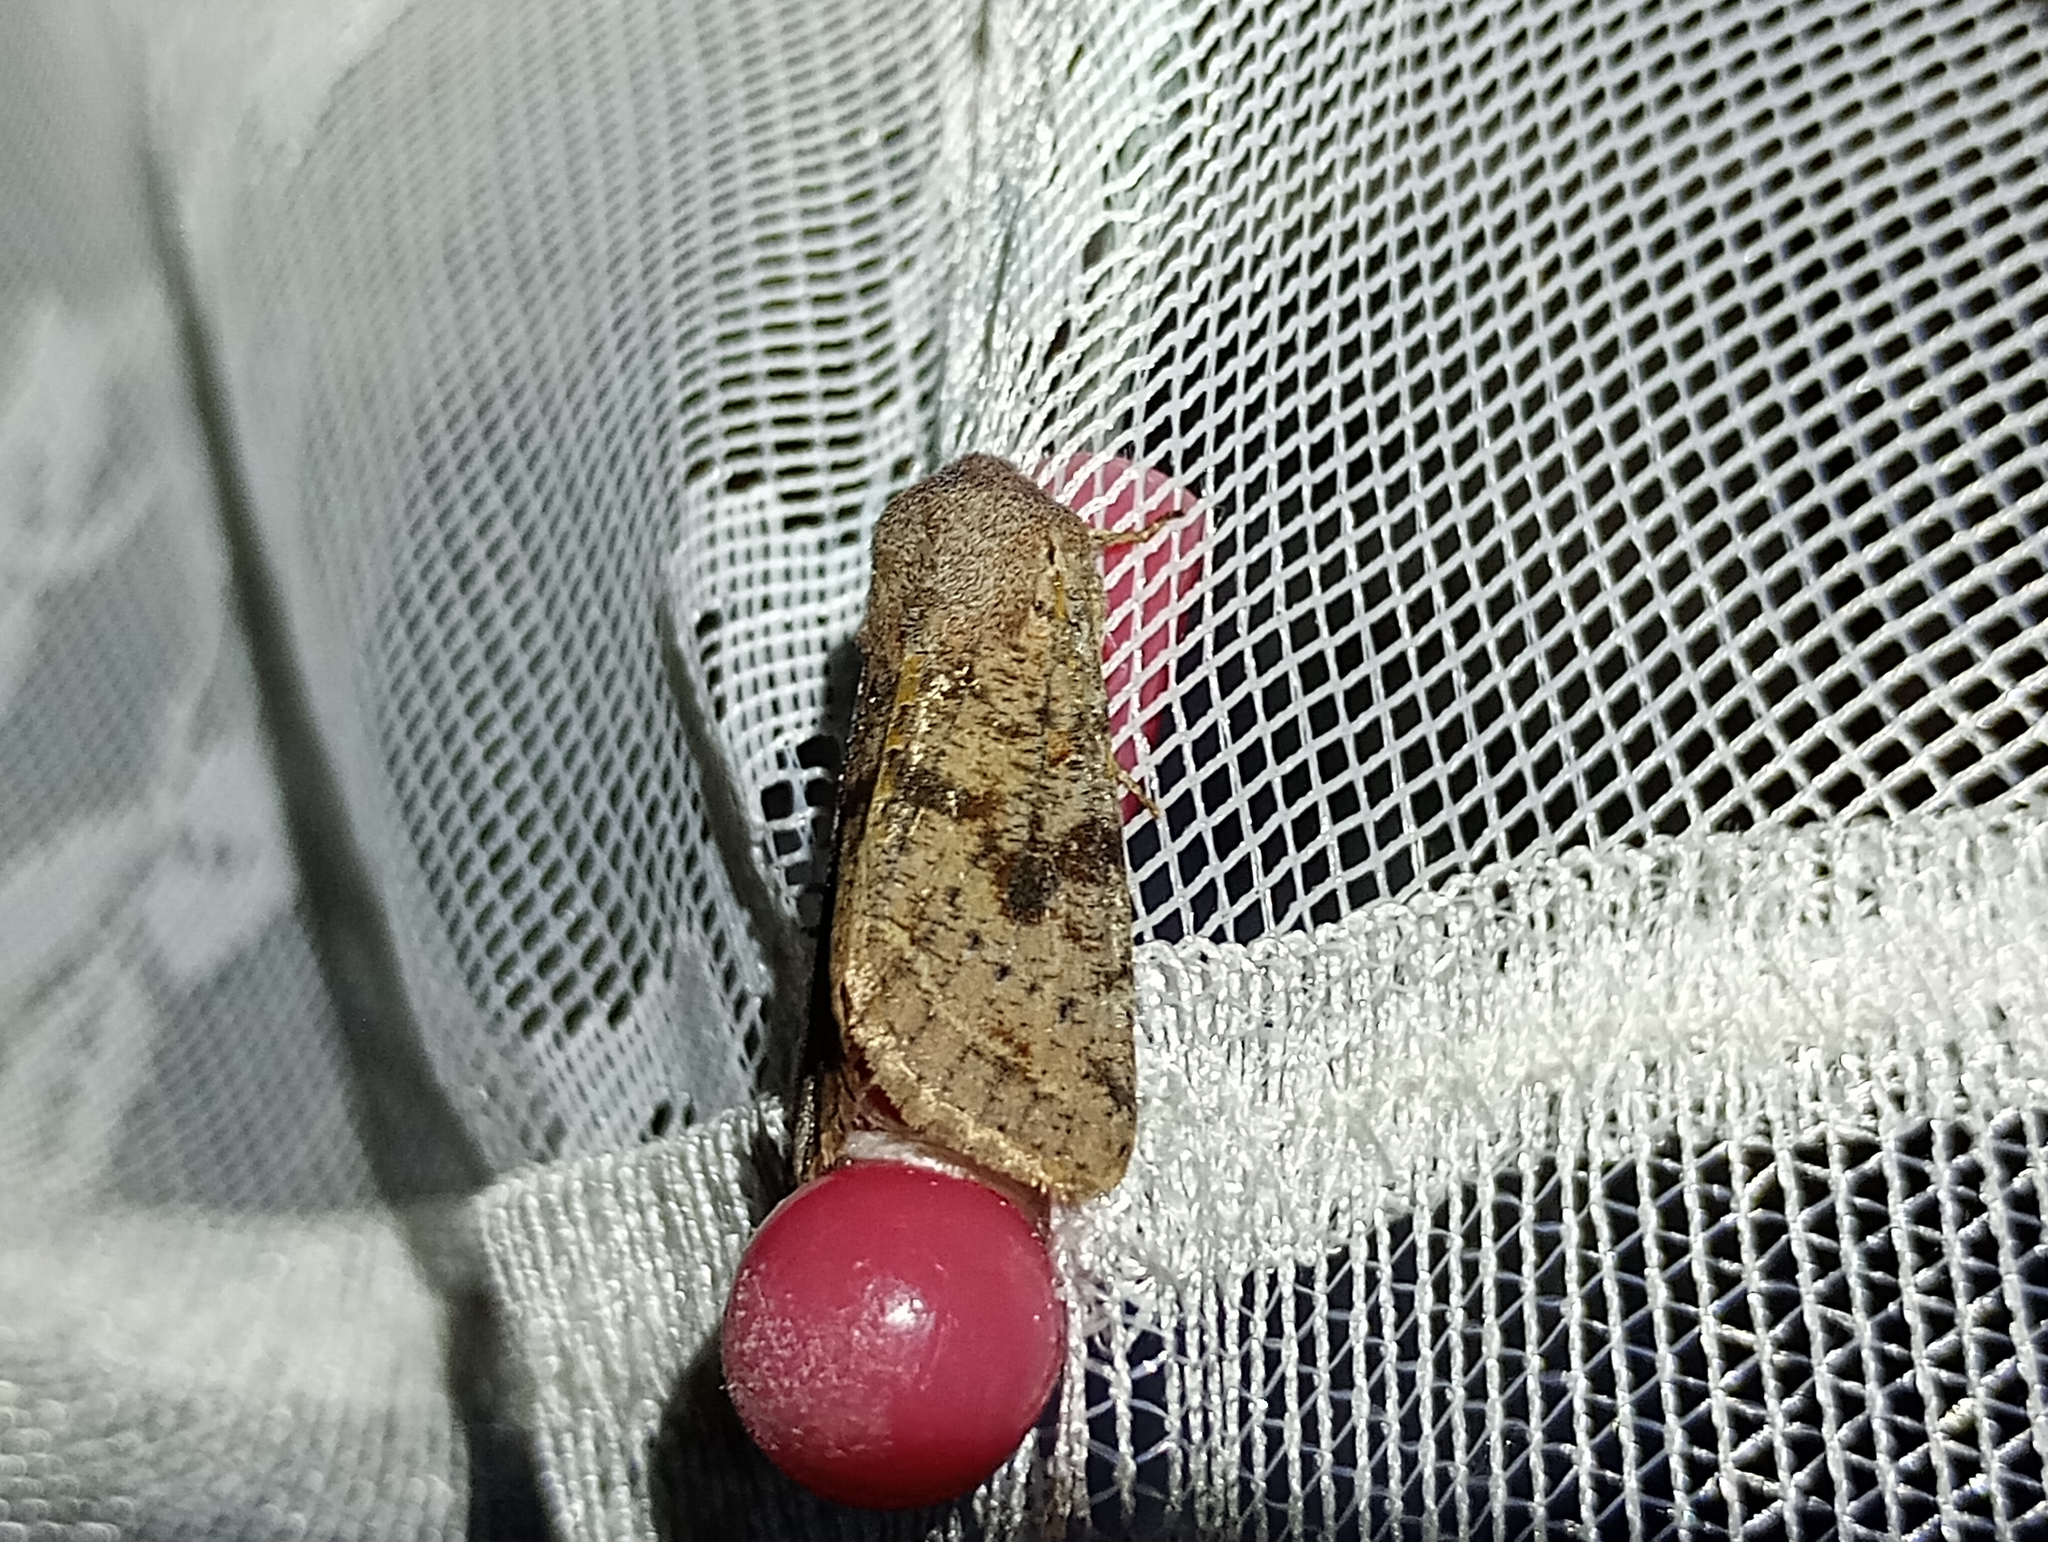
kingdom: Animalia
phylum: Arthropoda
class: Insecta
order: Lepidoptera
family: Noctuidae
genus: Orthosia
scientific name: Orthosia incerta
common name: Clouded drab
